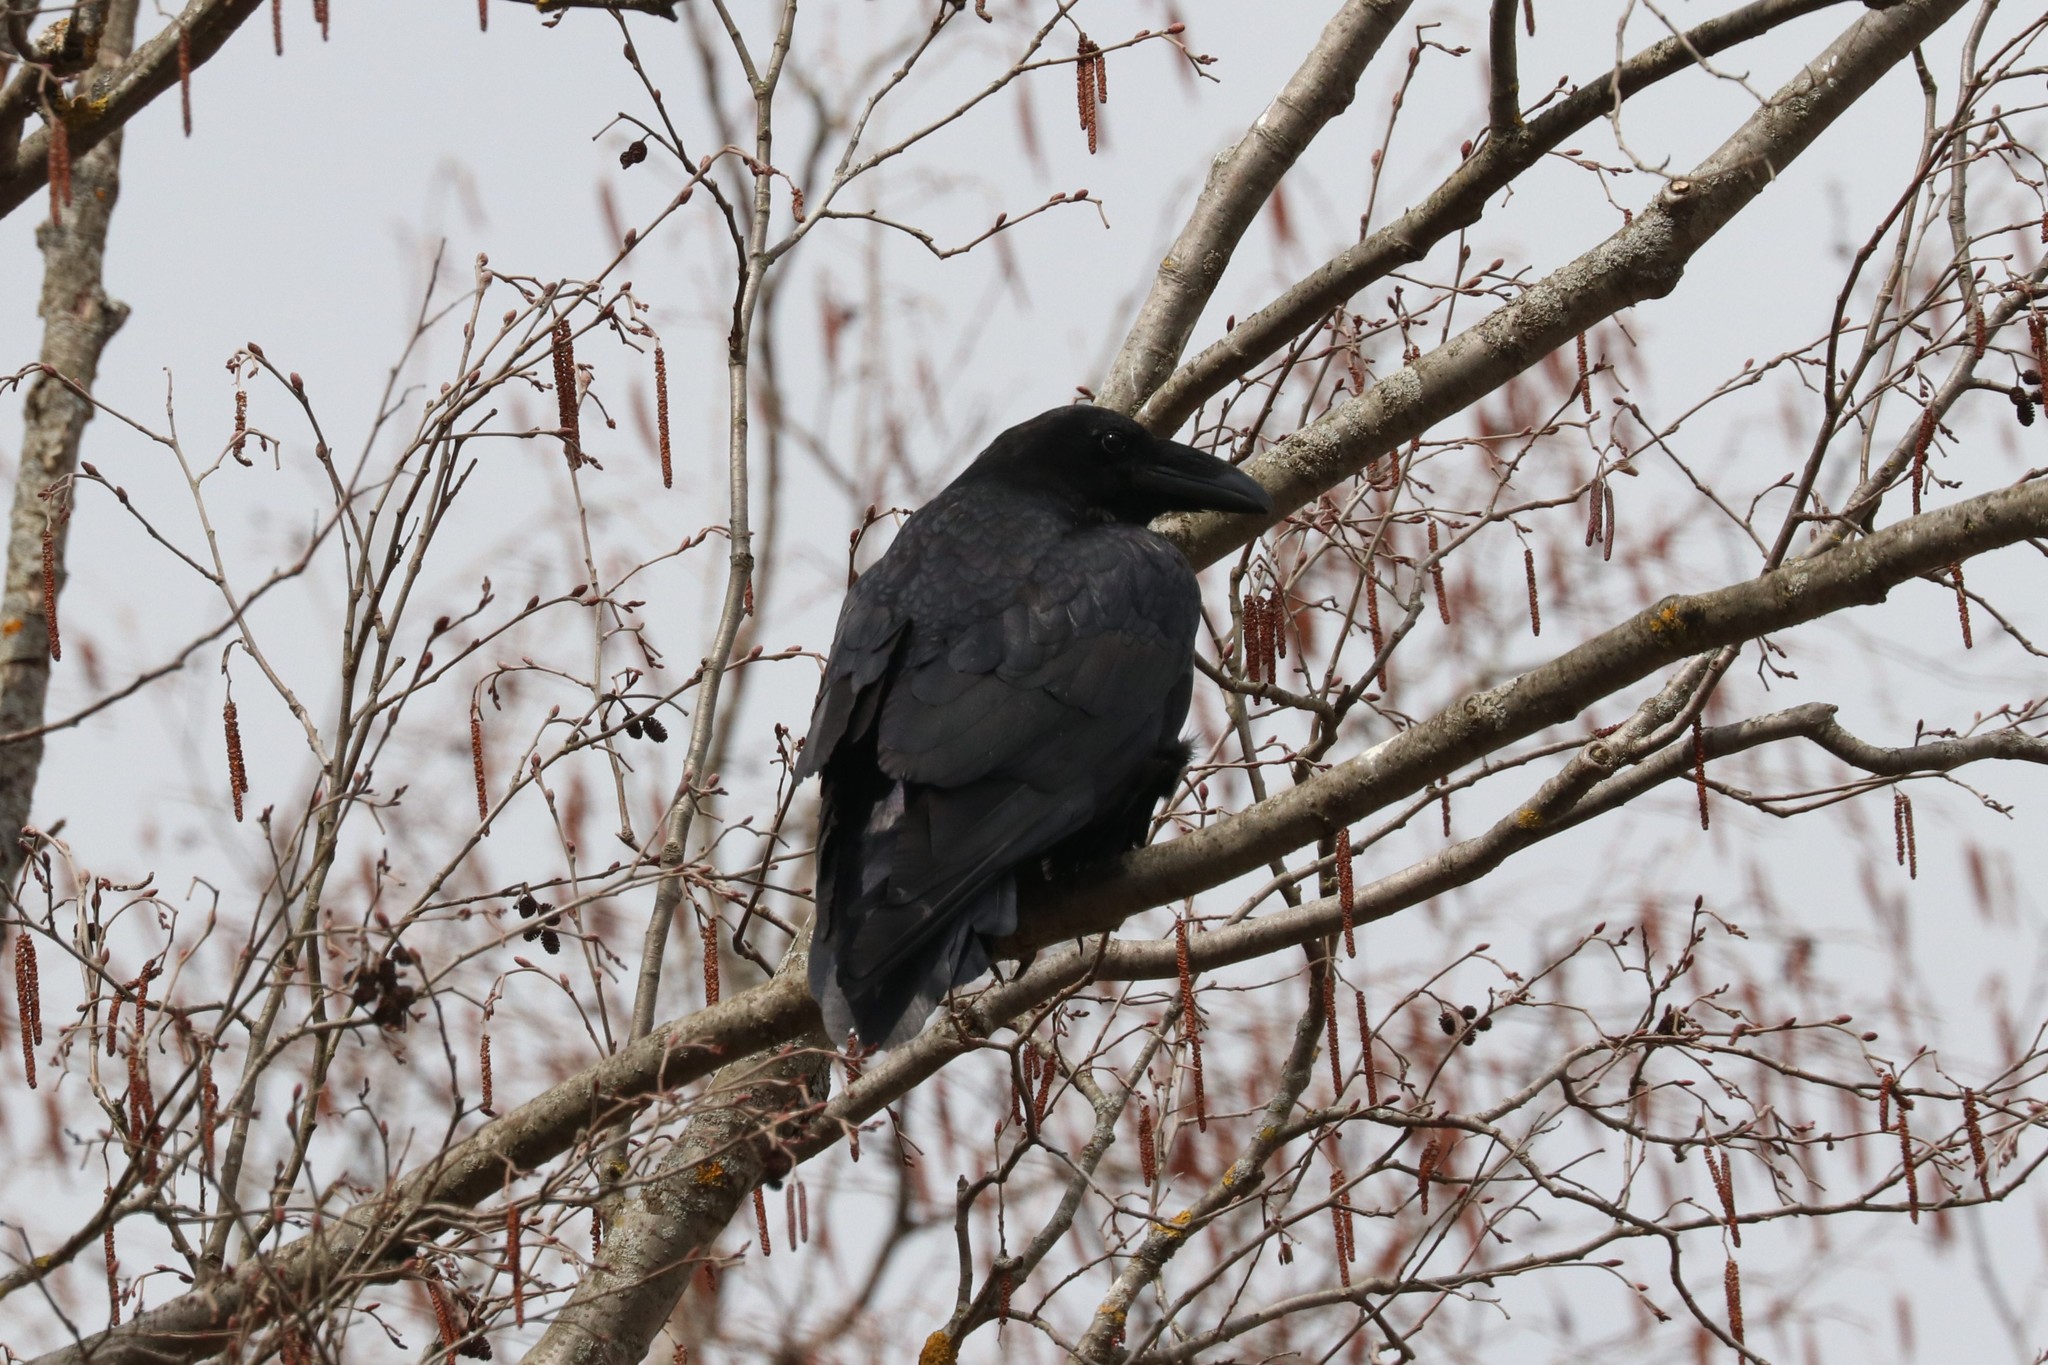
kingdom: Animalia
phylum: Chordata
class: Aves
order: Passeriformes
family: Corvidae
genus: Corvus
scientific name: Corvus corax
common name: Common raven
